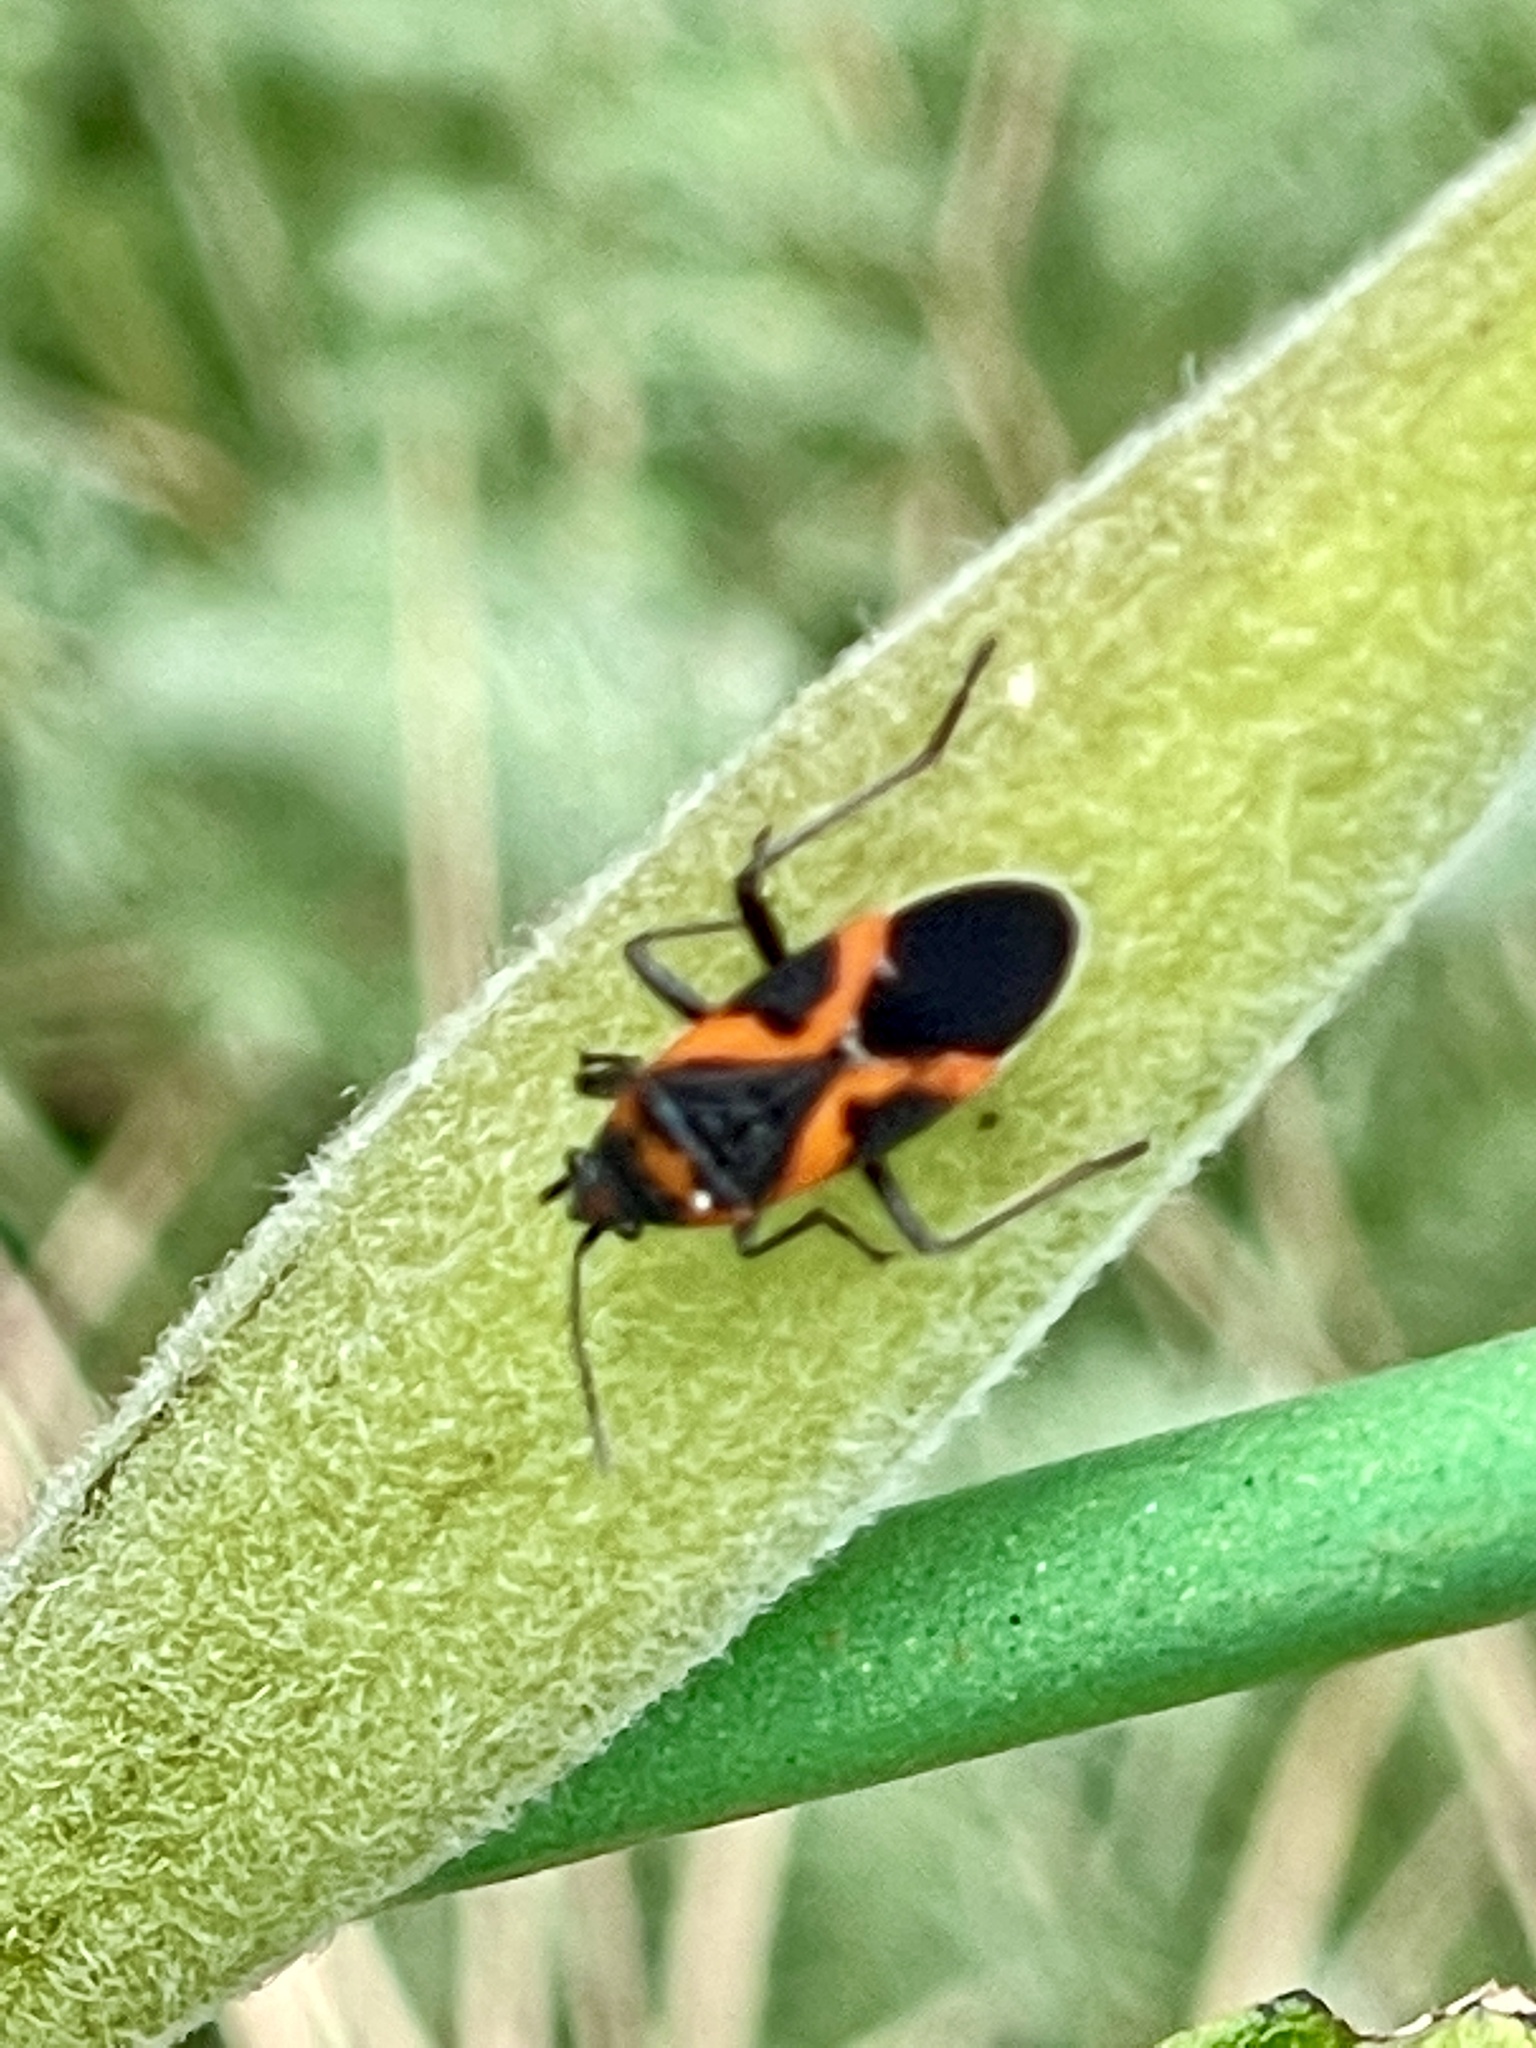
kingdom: Animalia
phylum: Arthropoda
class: Insecta
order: Hemiptera
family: Lygaeidae
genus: Lygaeus
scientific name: Lygaeus kalmii
